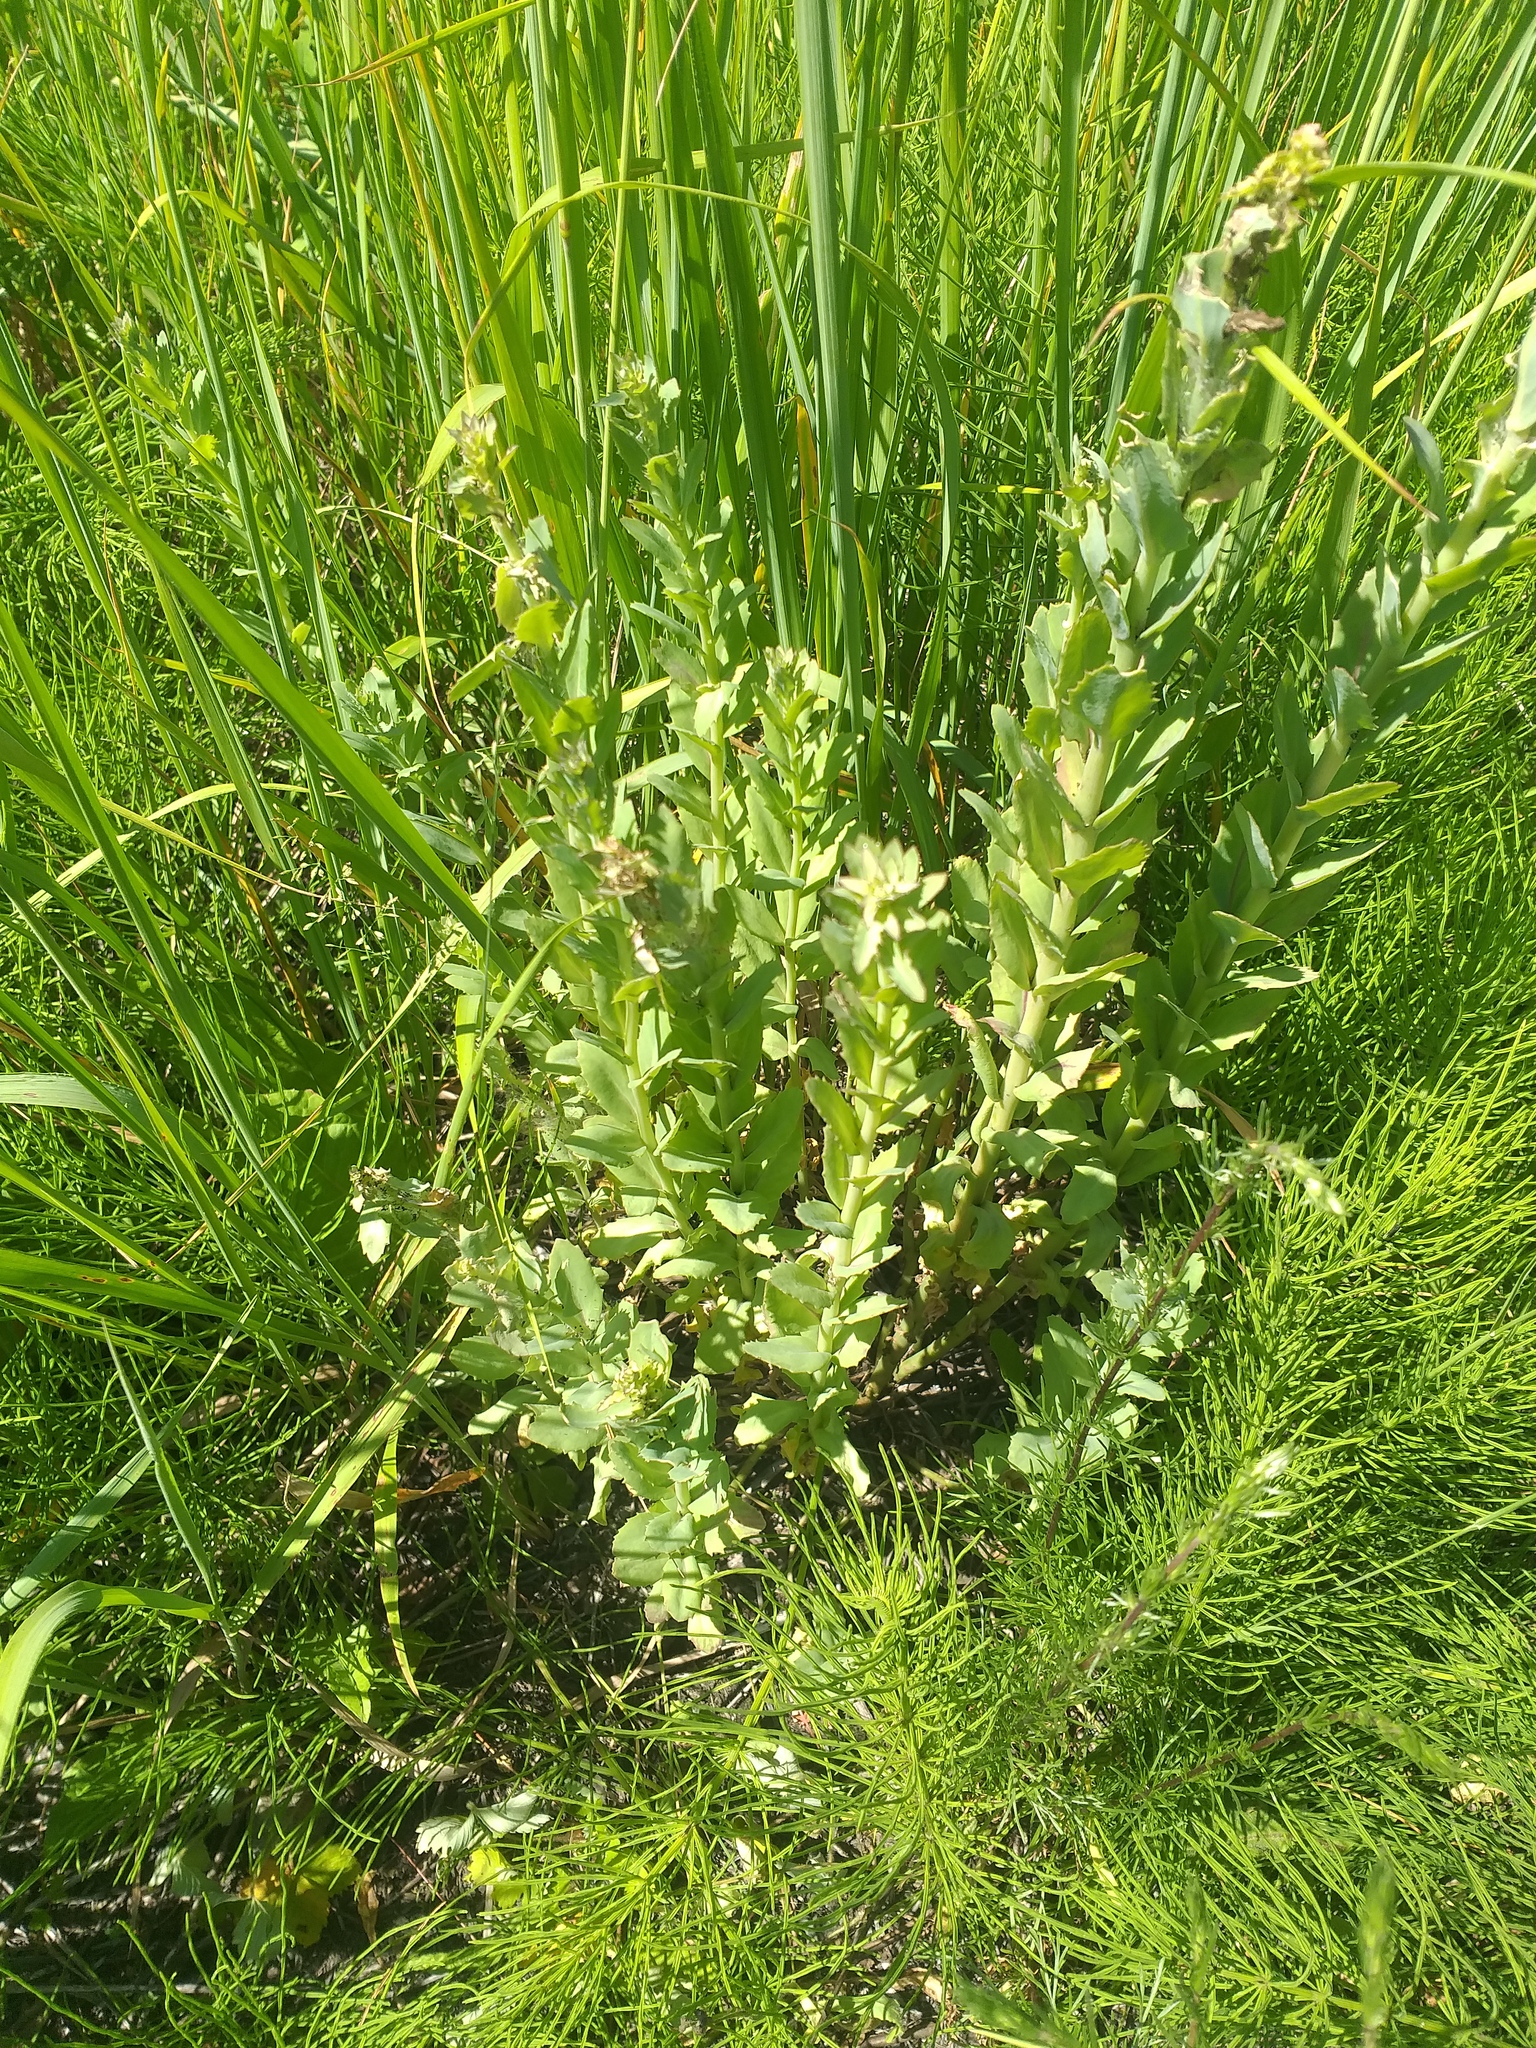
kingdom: Plantae
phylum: Tracheophyta
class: Magnoliopsida
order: Saxifragales
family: Crassulaceae
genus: Hylotelephium
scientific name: Hylotelephium telephium
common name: Live-forever
